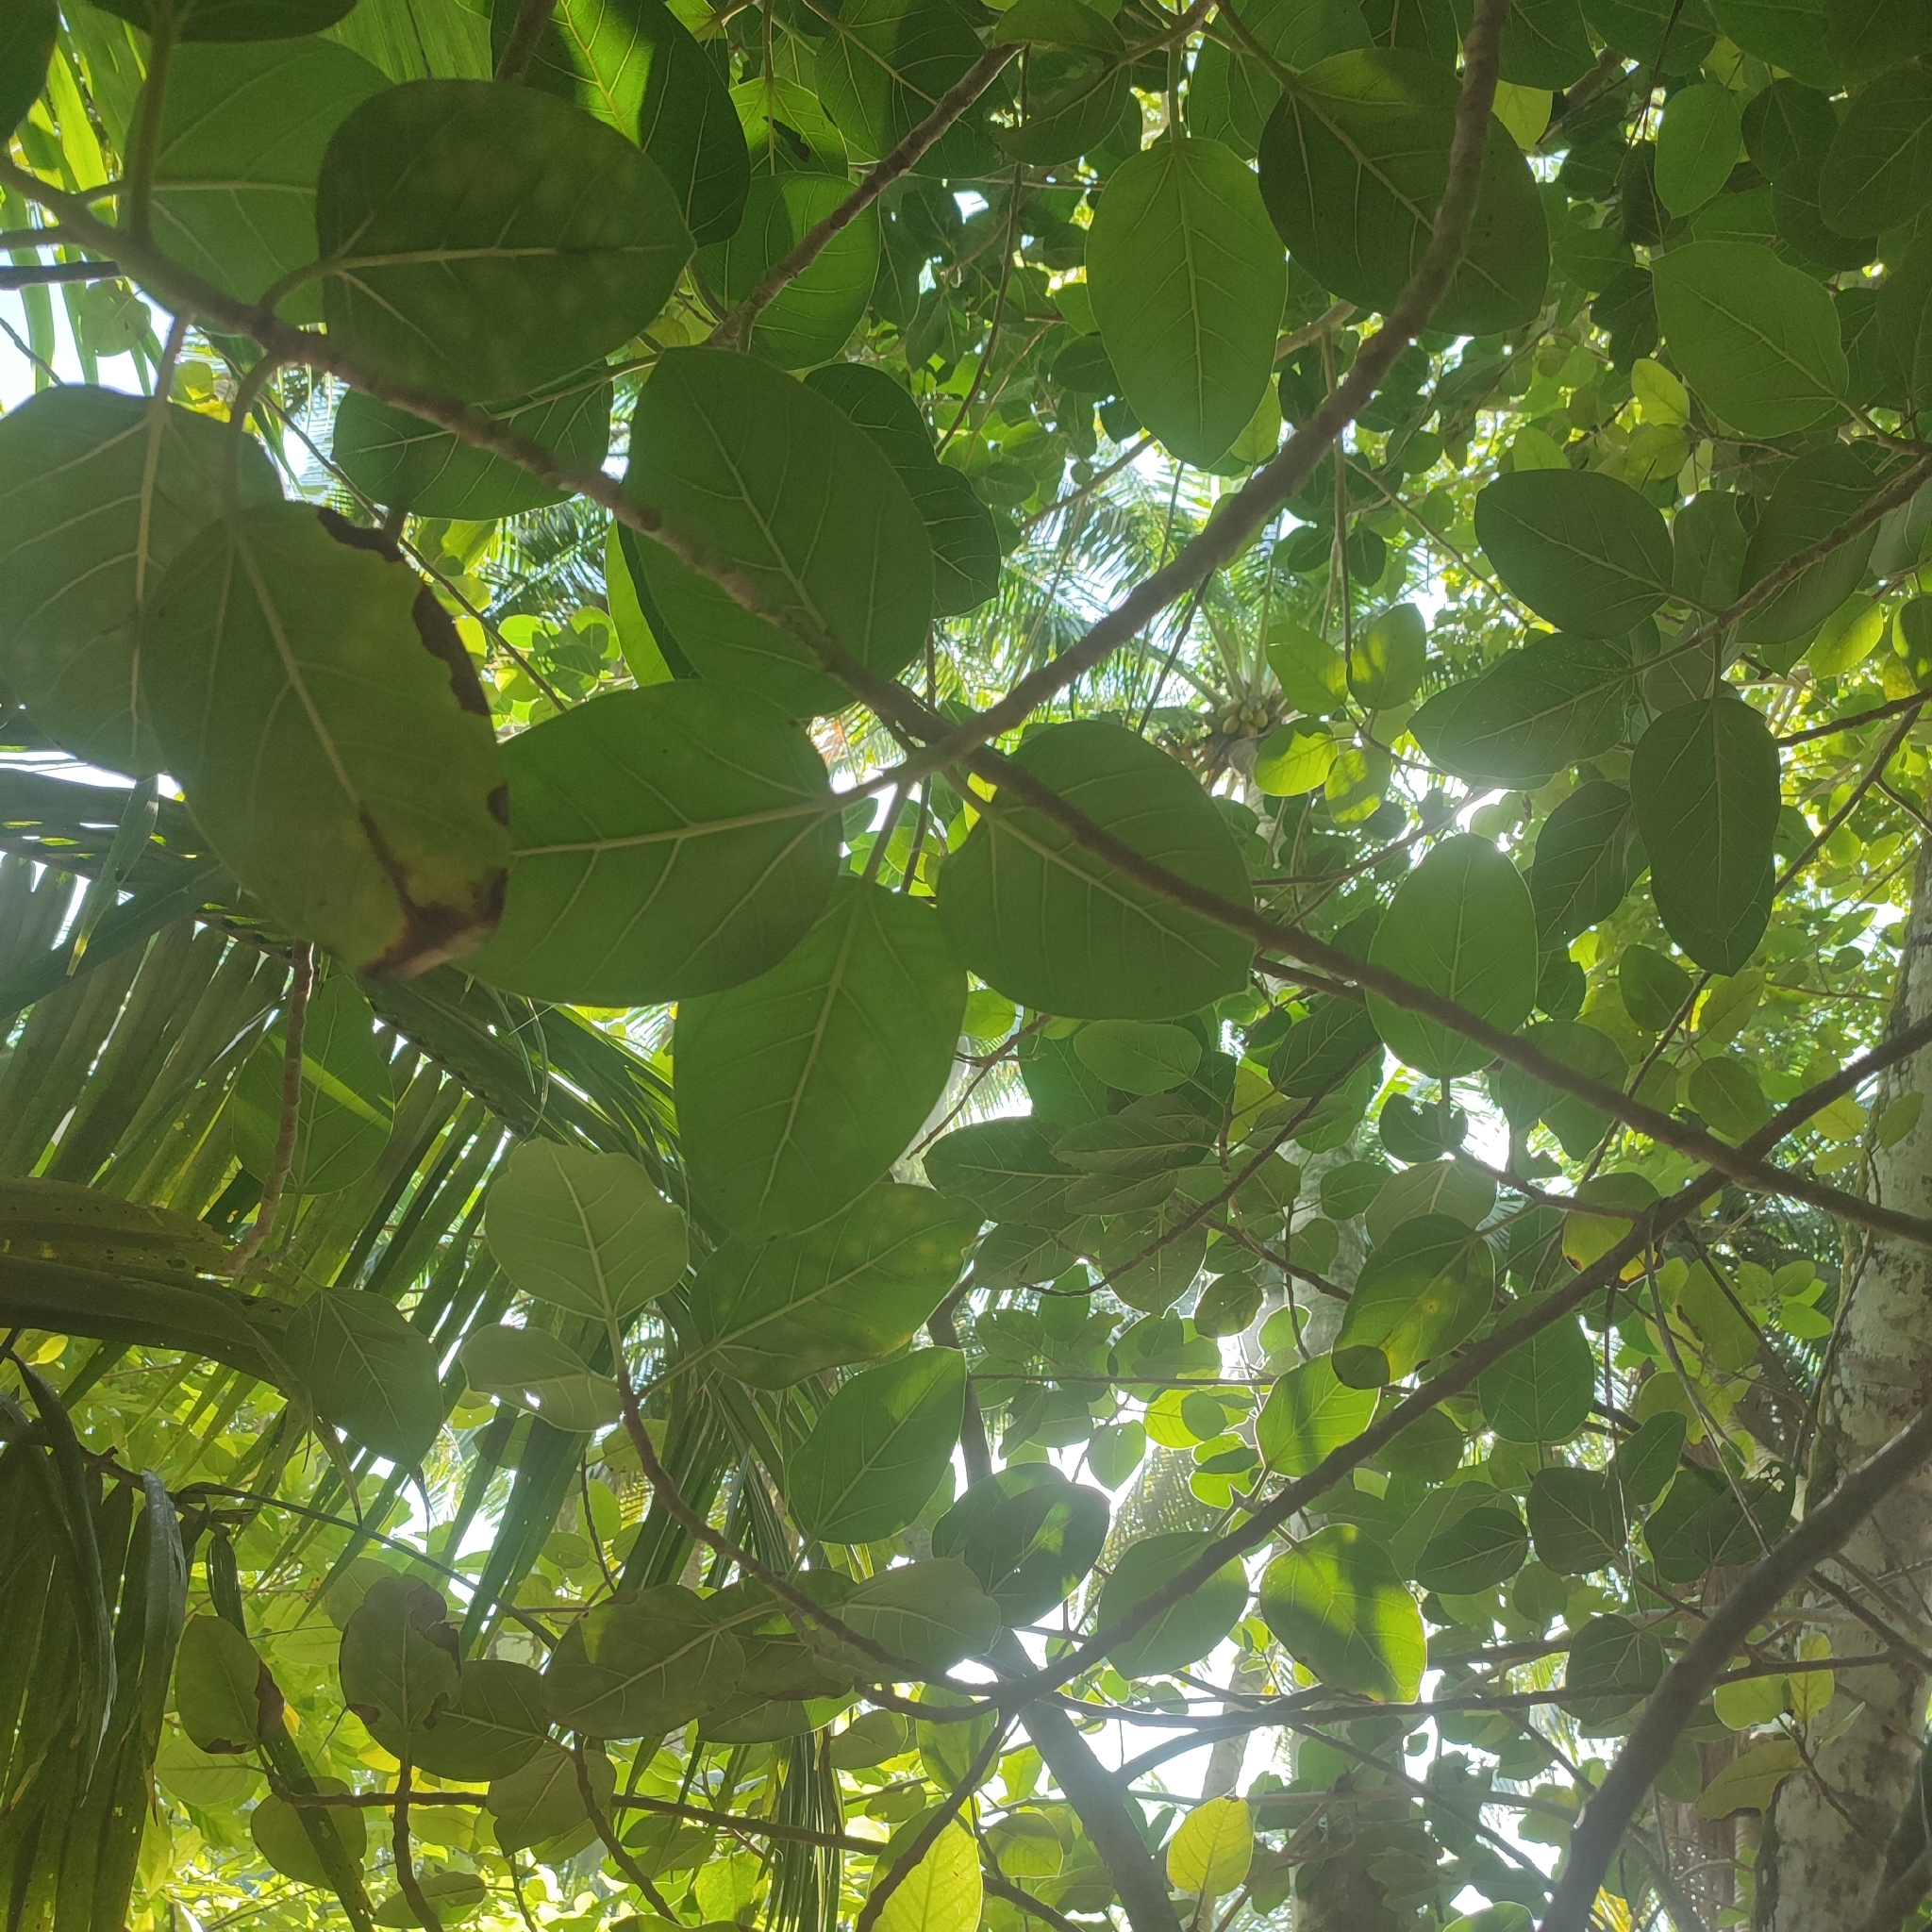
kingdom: Plantae
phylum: Tracheophyta
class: Magnoliopsida
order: Rosales
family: Moraceae
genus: Ficus
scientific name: Ficus benghalensis
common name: Indian banyan
